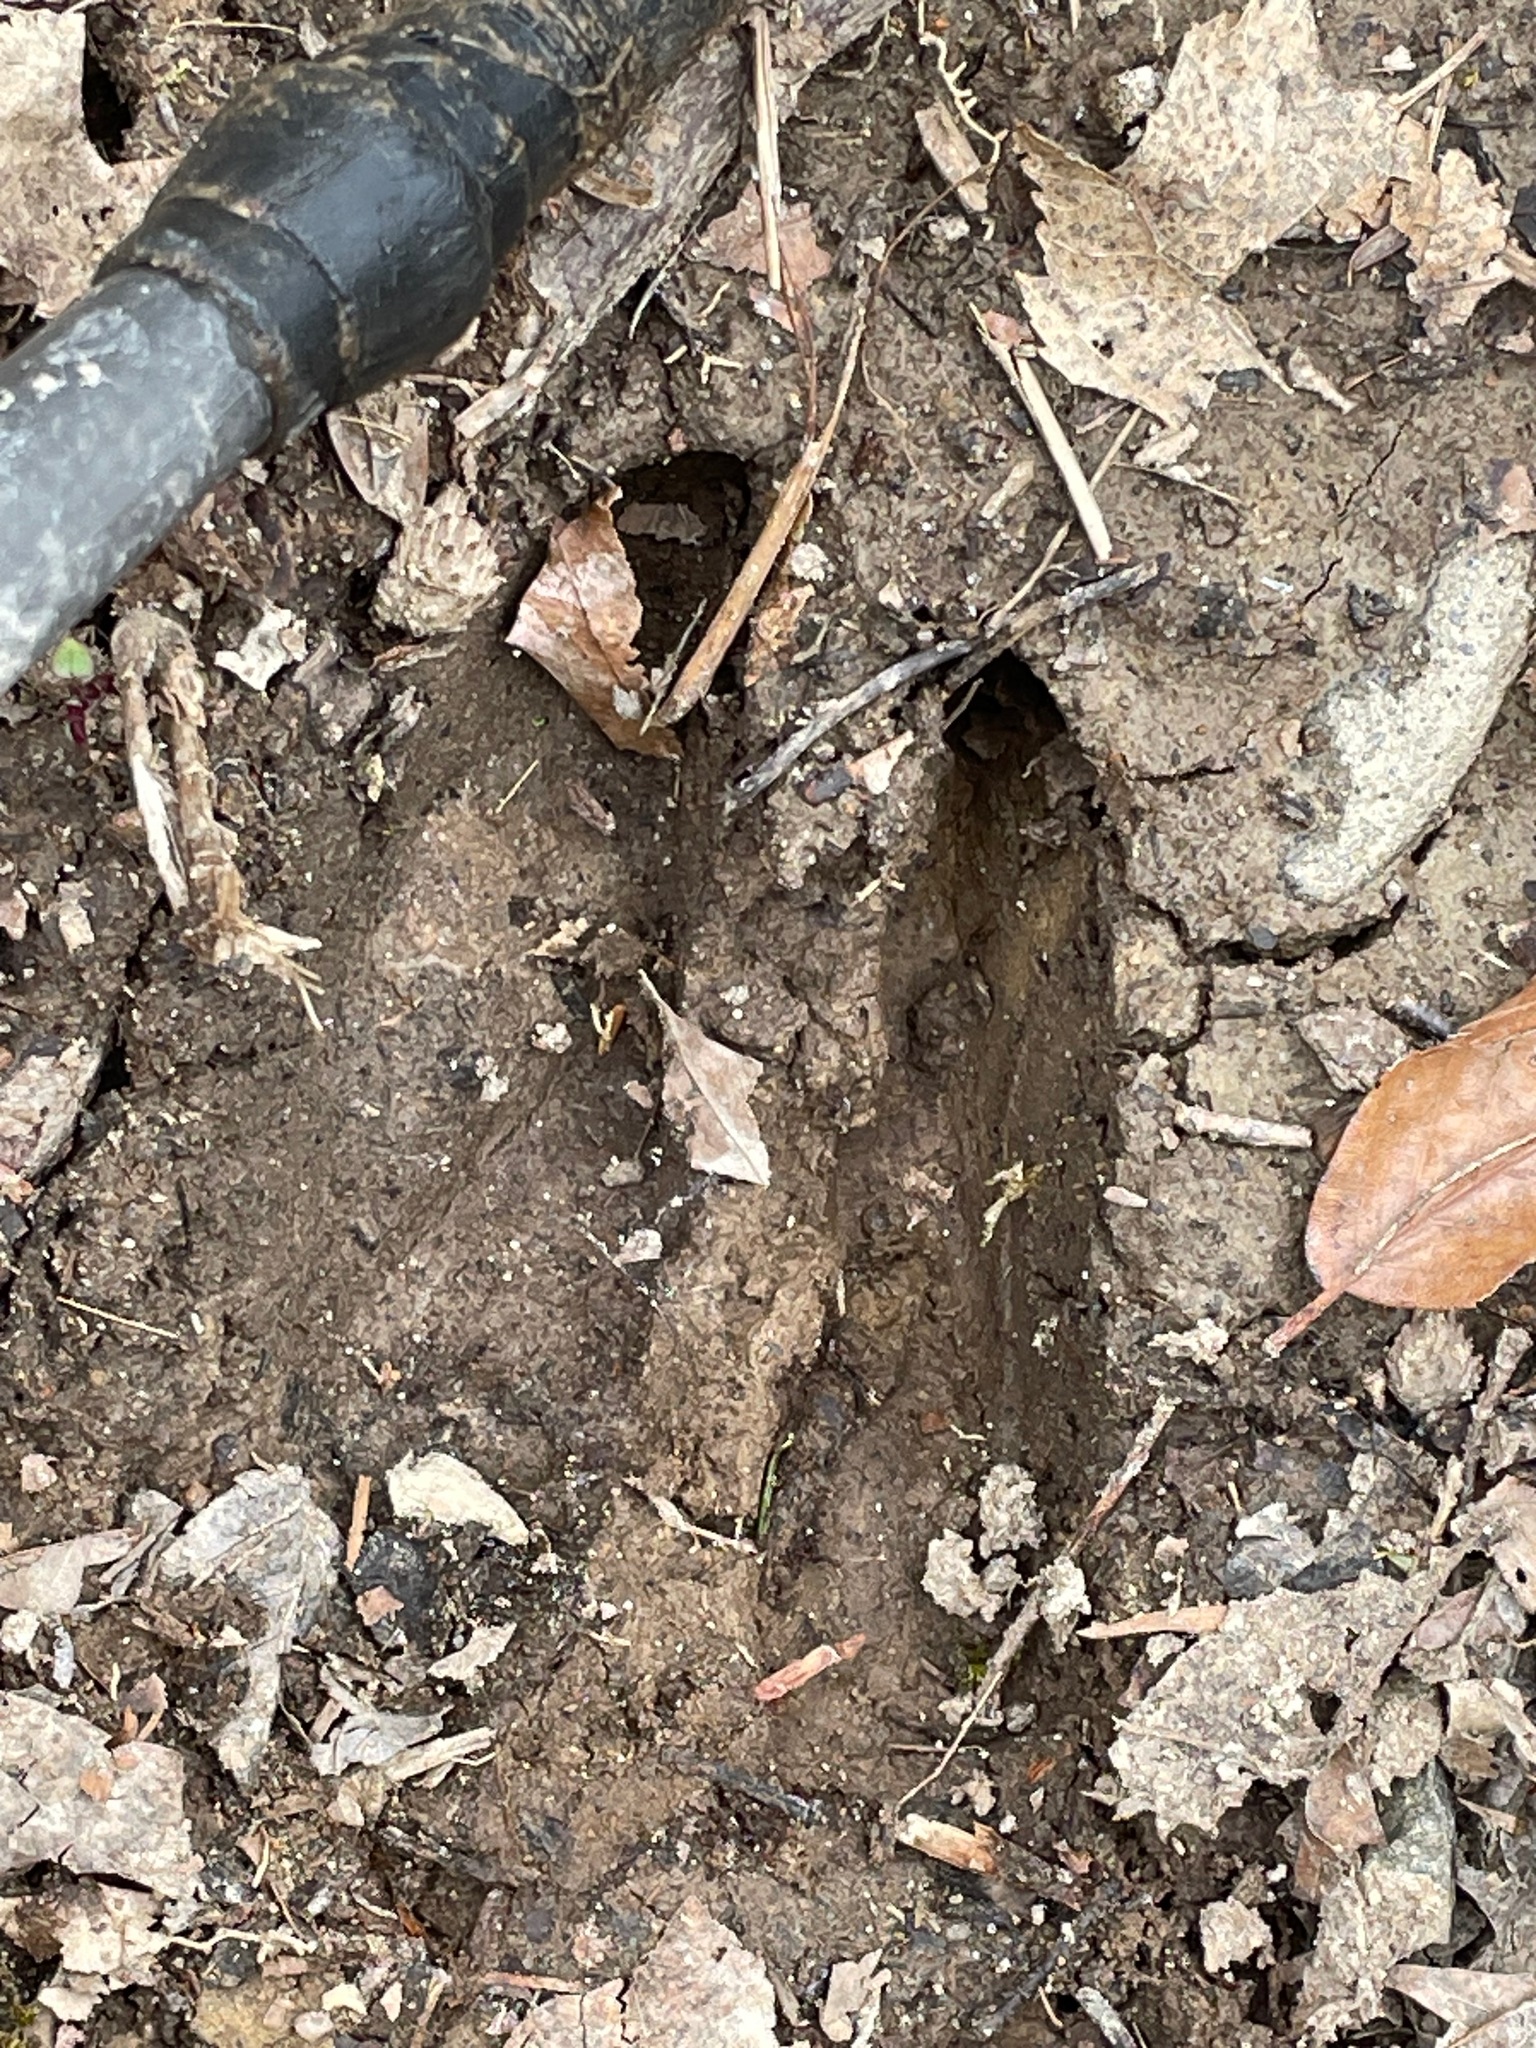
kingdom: Animalia
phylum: Chordata
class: Mammalia
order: Artiodactyla
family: Cervidae
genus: Odocoileus
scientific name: Odocoileus virginianus
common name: White-tailed deer
